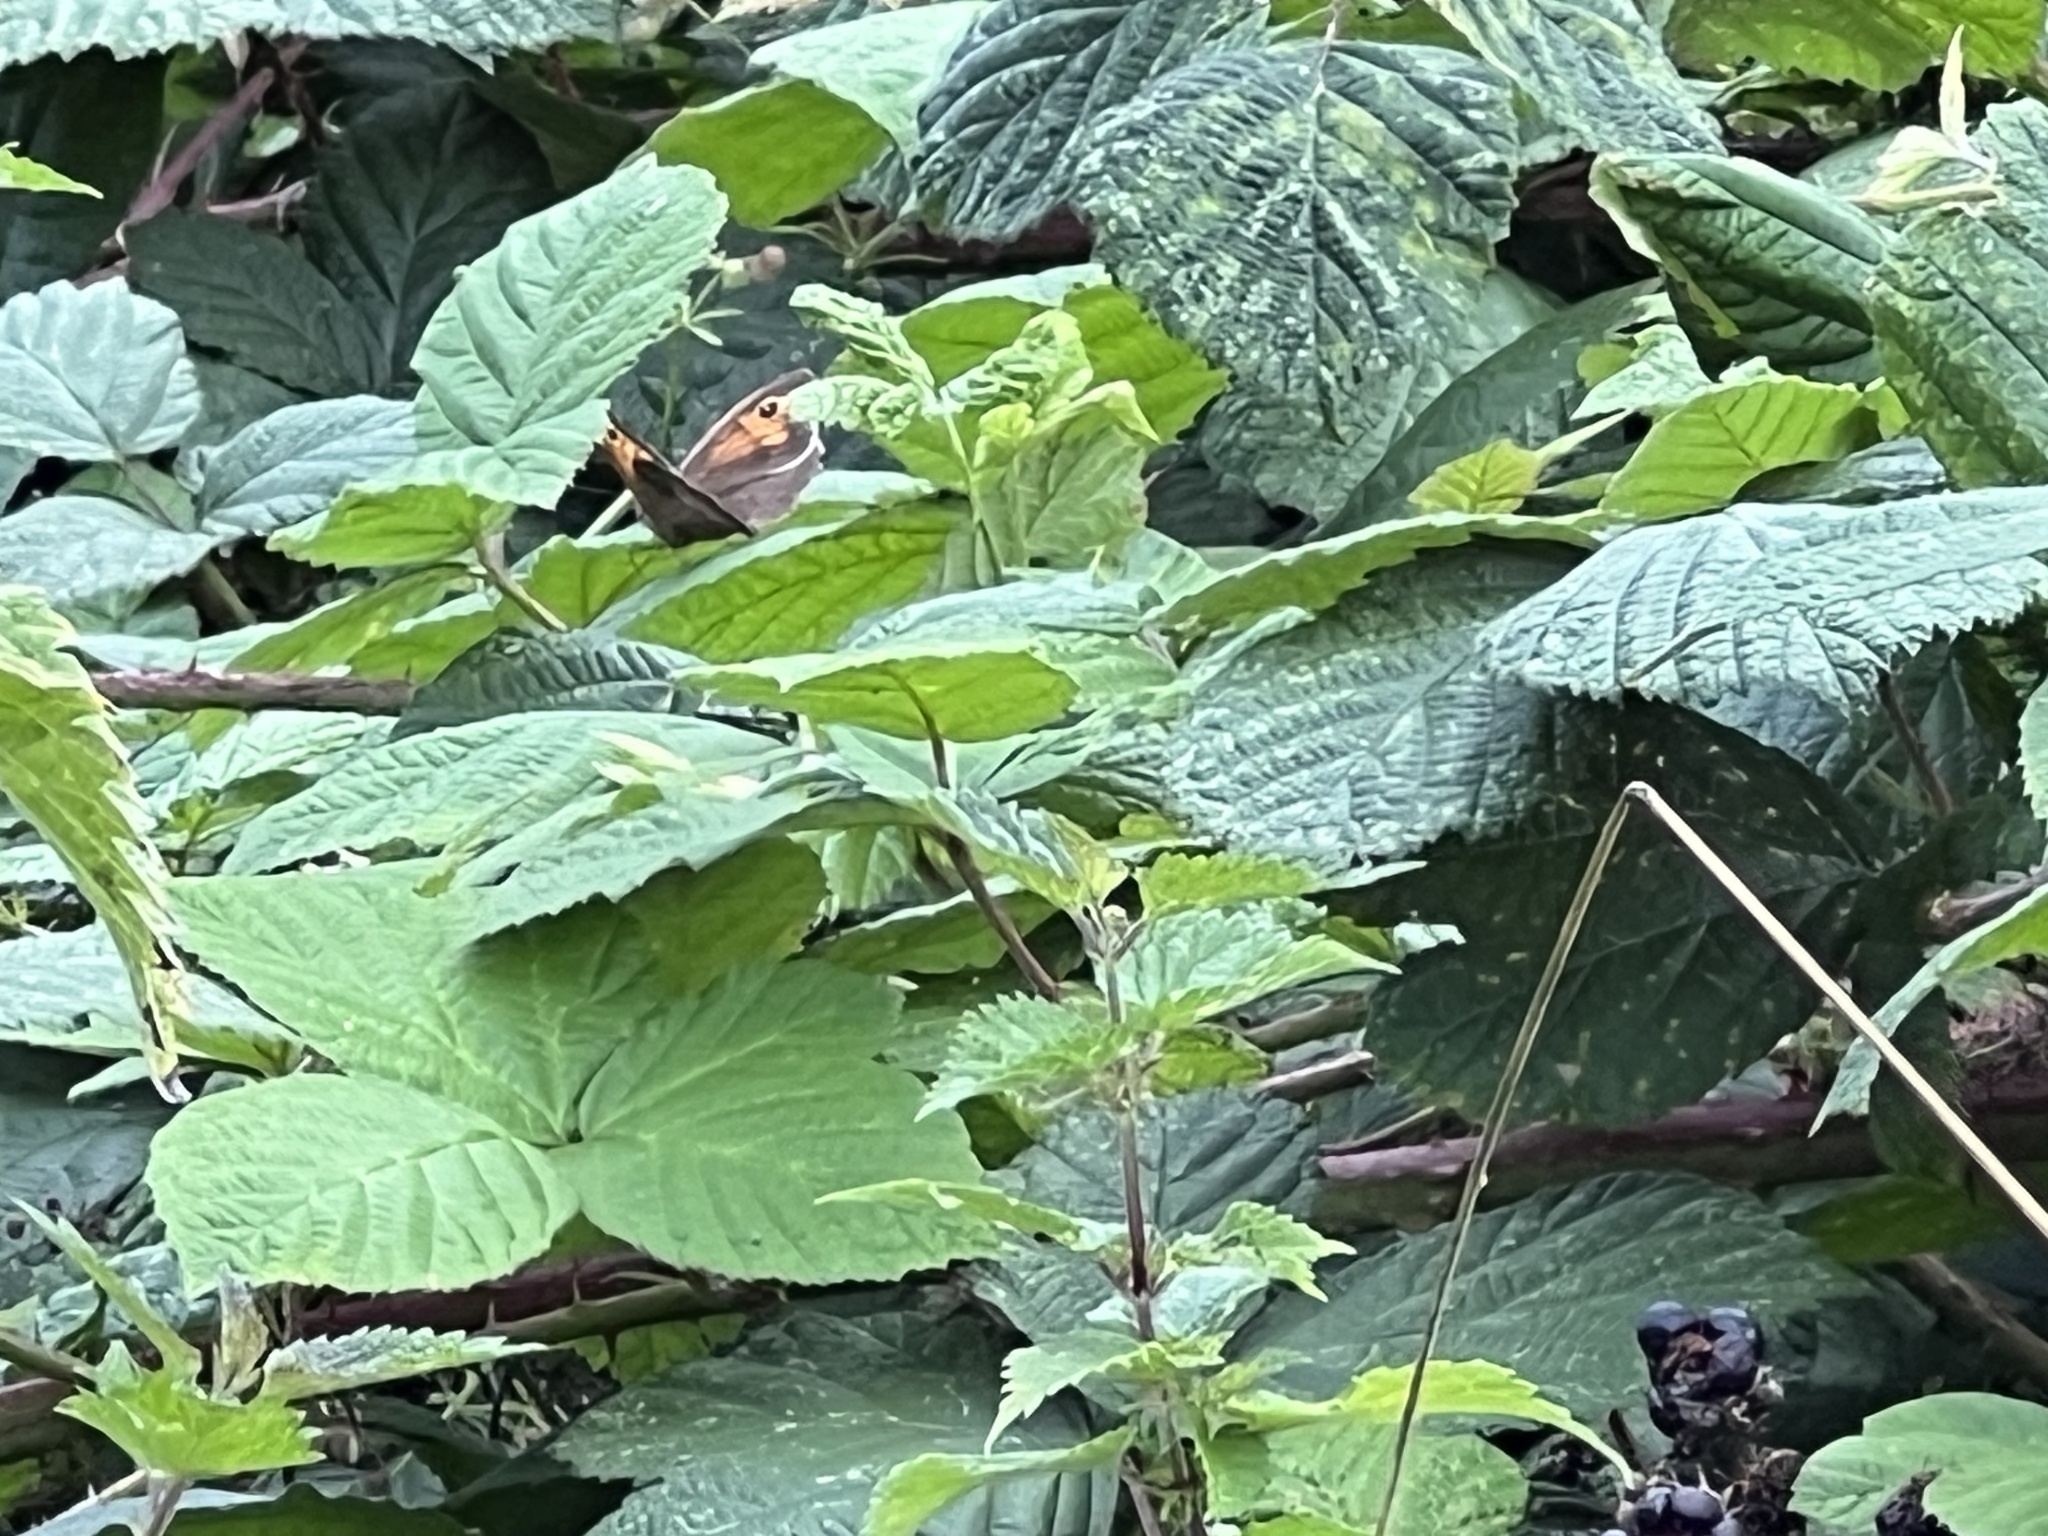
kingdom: Animalia
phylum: Arthropoda
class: Insecta
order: Lepidoptera
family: Nymphalidae
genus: Maniola
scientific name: Maniola jurtina
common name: Meadow brown
